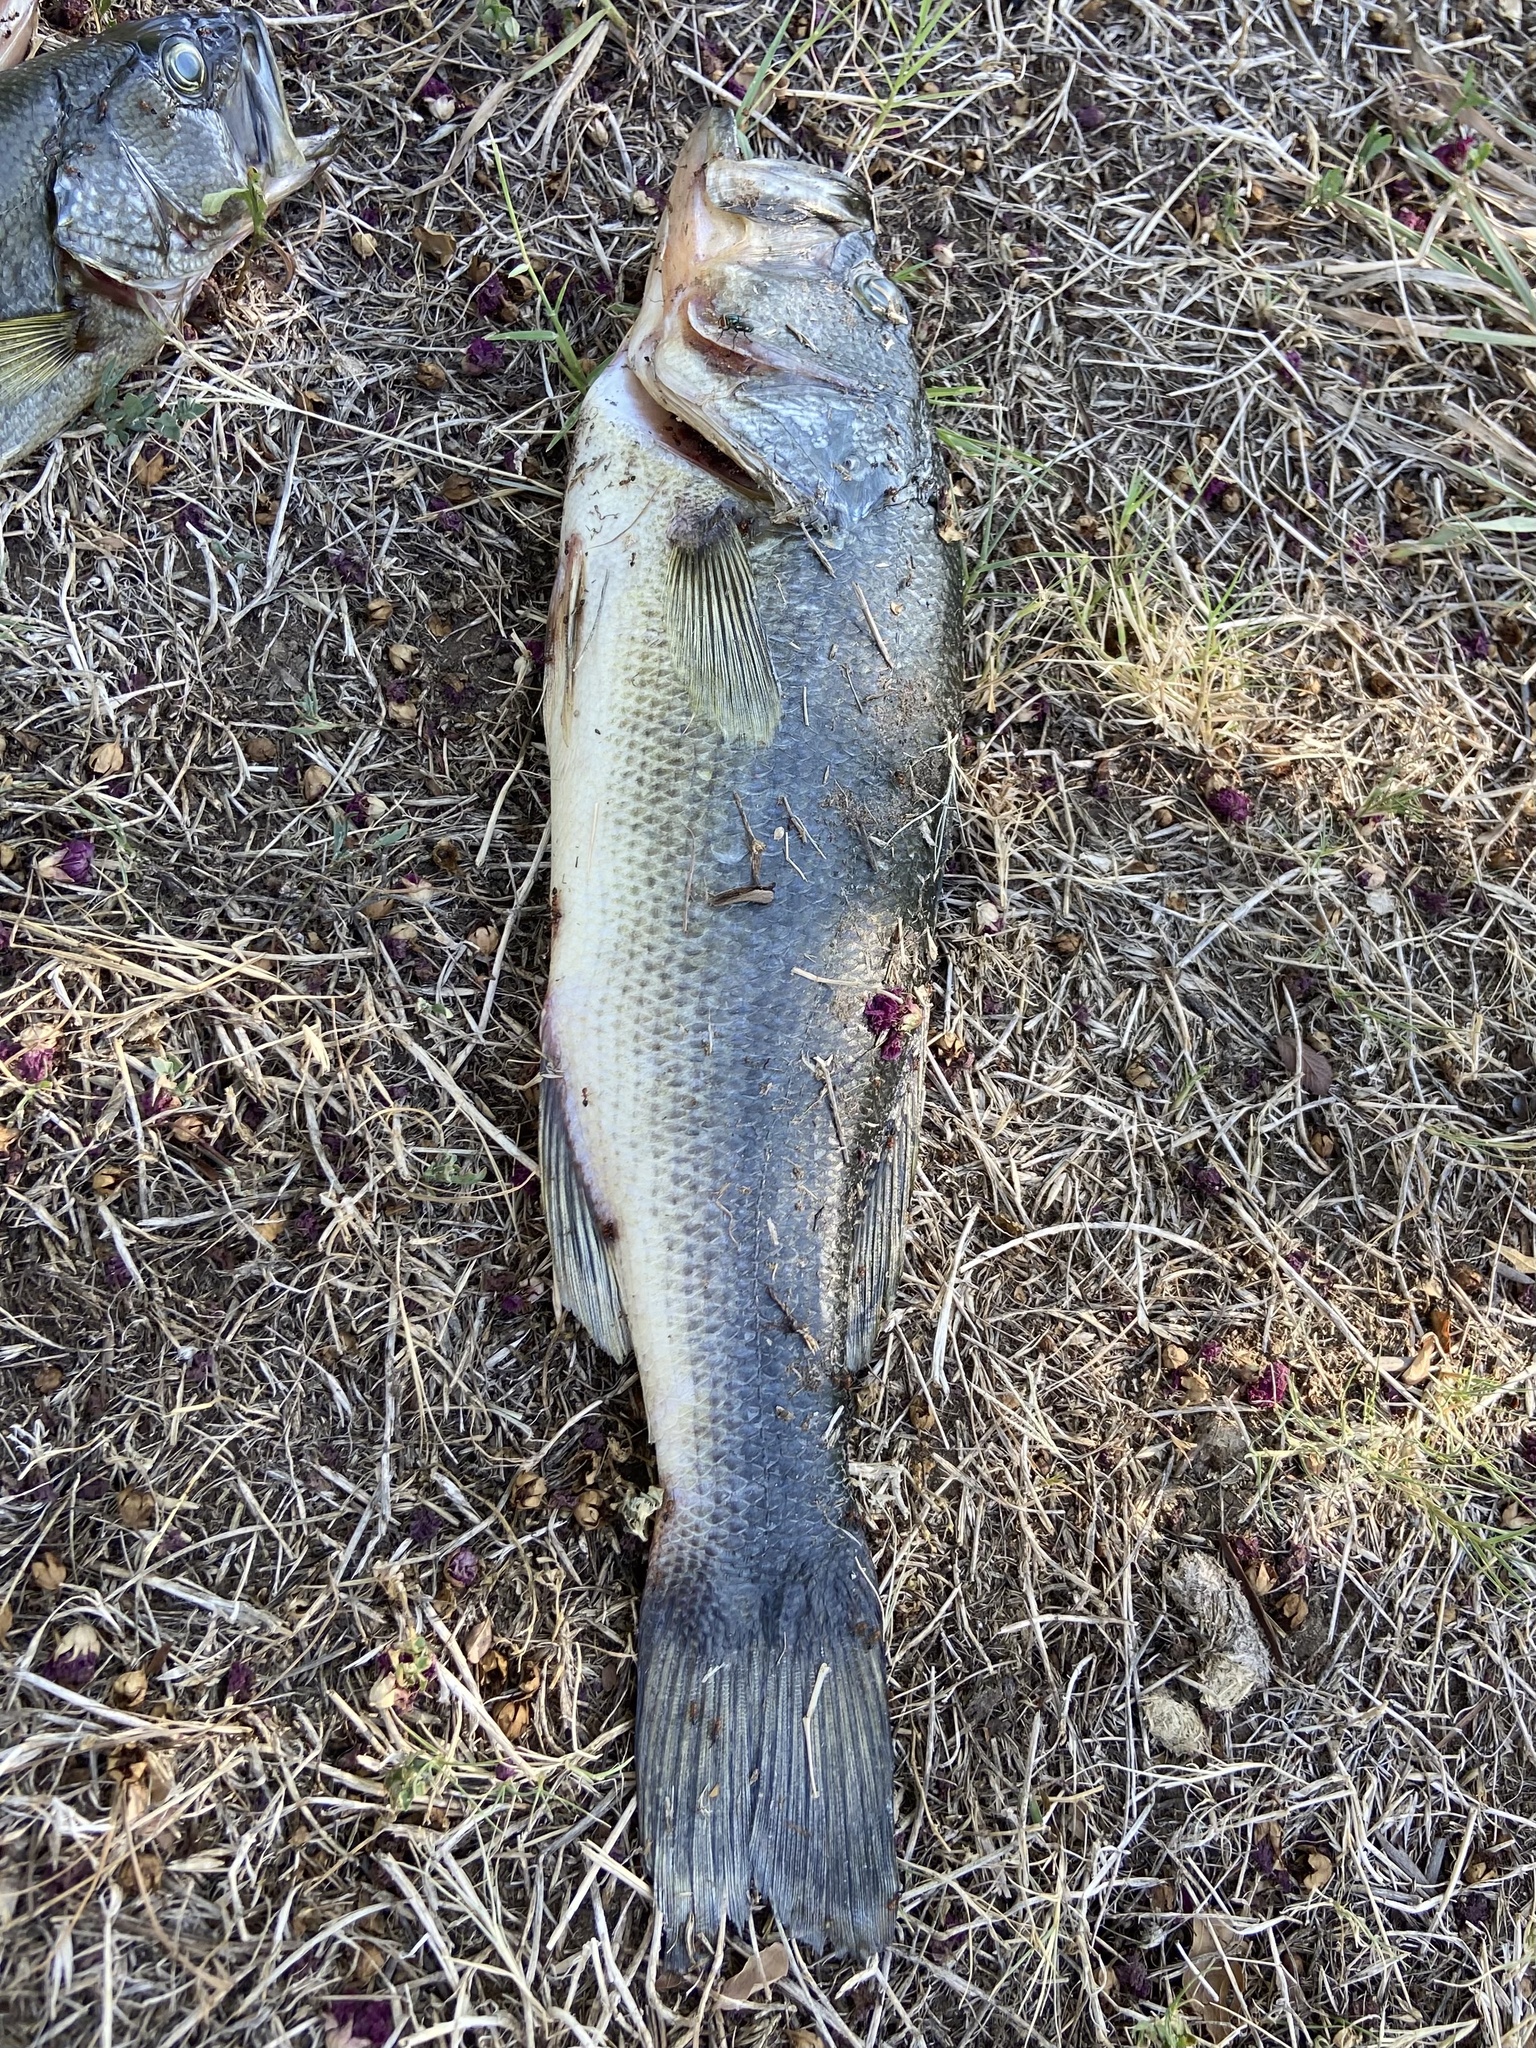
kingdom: Animalia
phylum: Chordata
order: Perciformes
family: Centrarchidae
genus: Micropterus
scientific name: Micropterus
